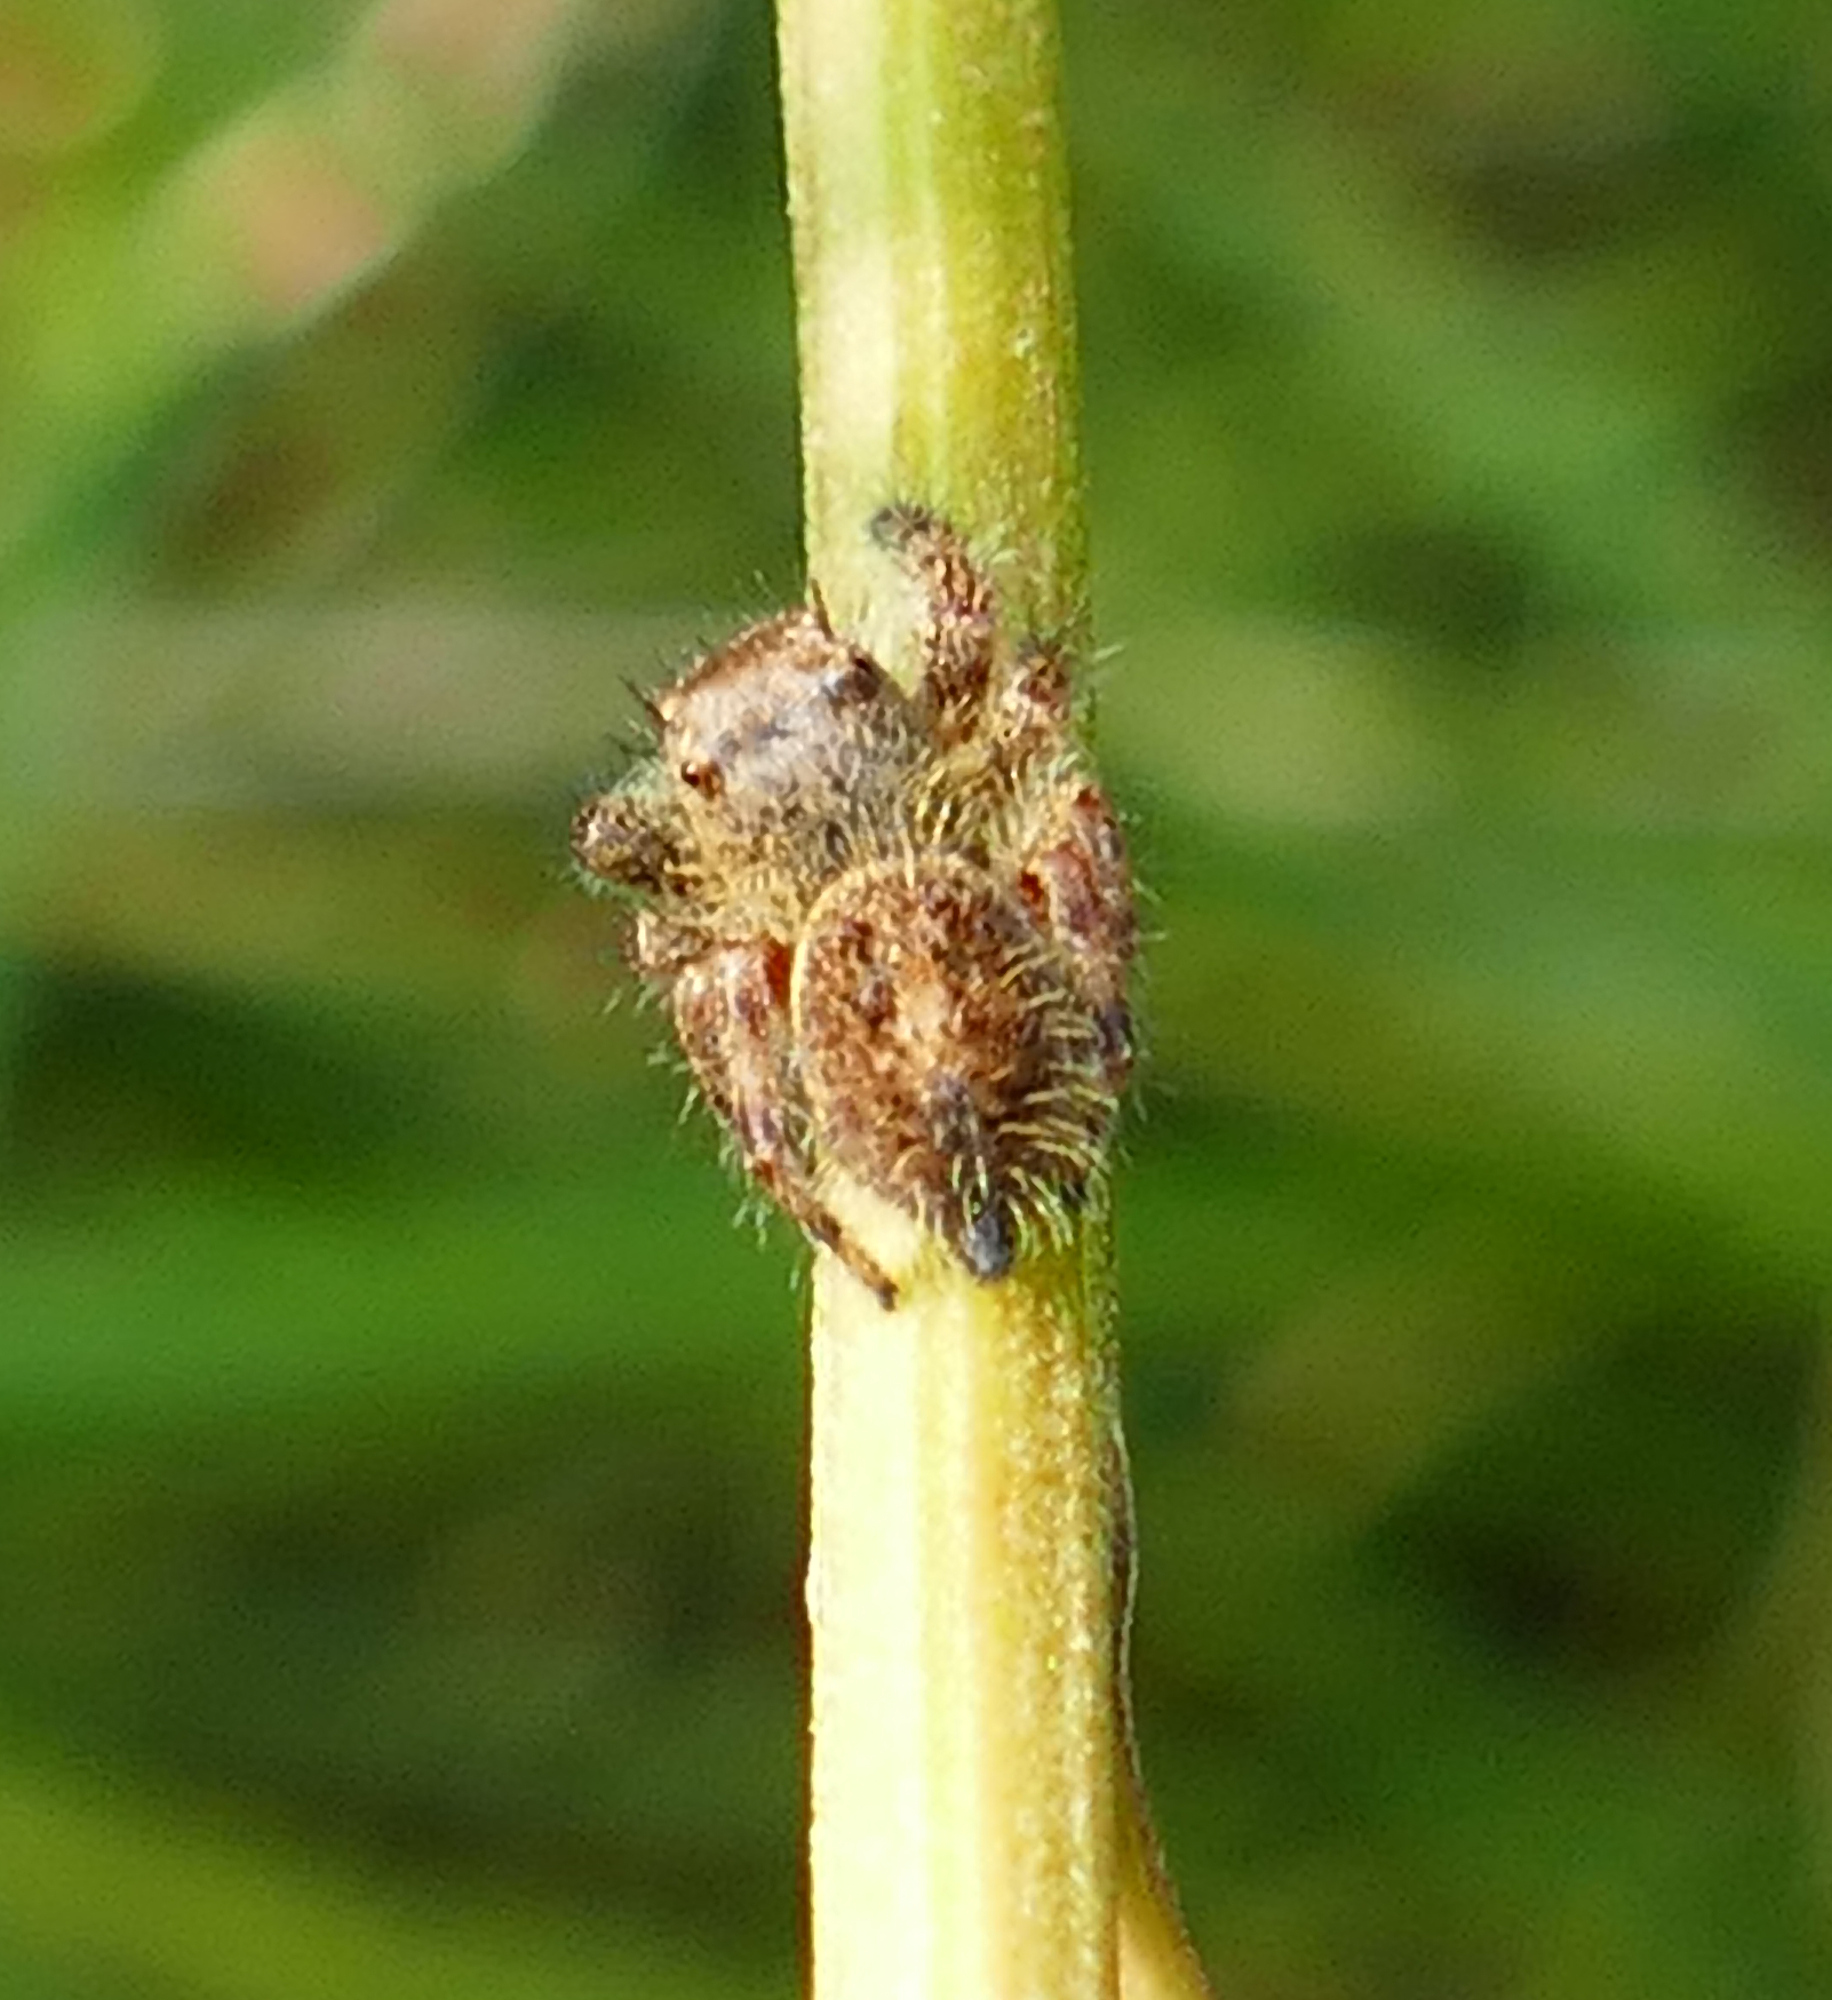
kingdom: Animalia
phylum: Arthropoda
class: Arachnida
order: Araneae
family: Salticidae
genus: Phidippus
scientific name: Phidippus princeps
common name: Grayish jumping spider
